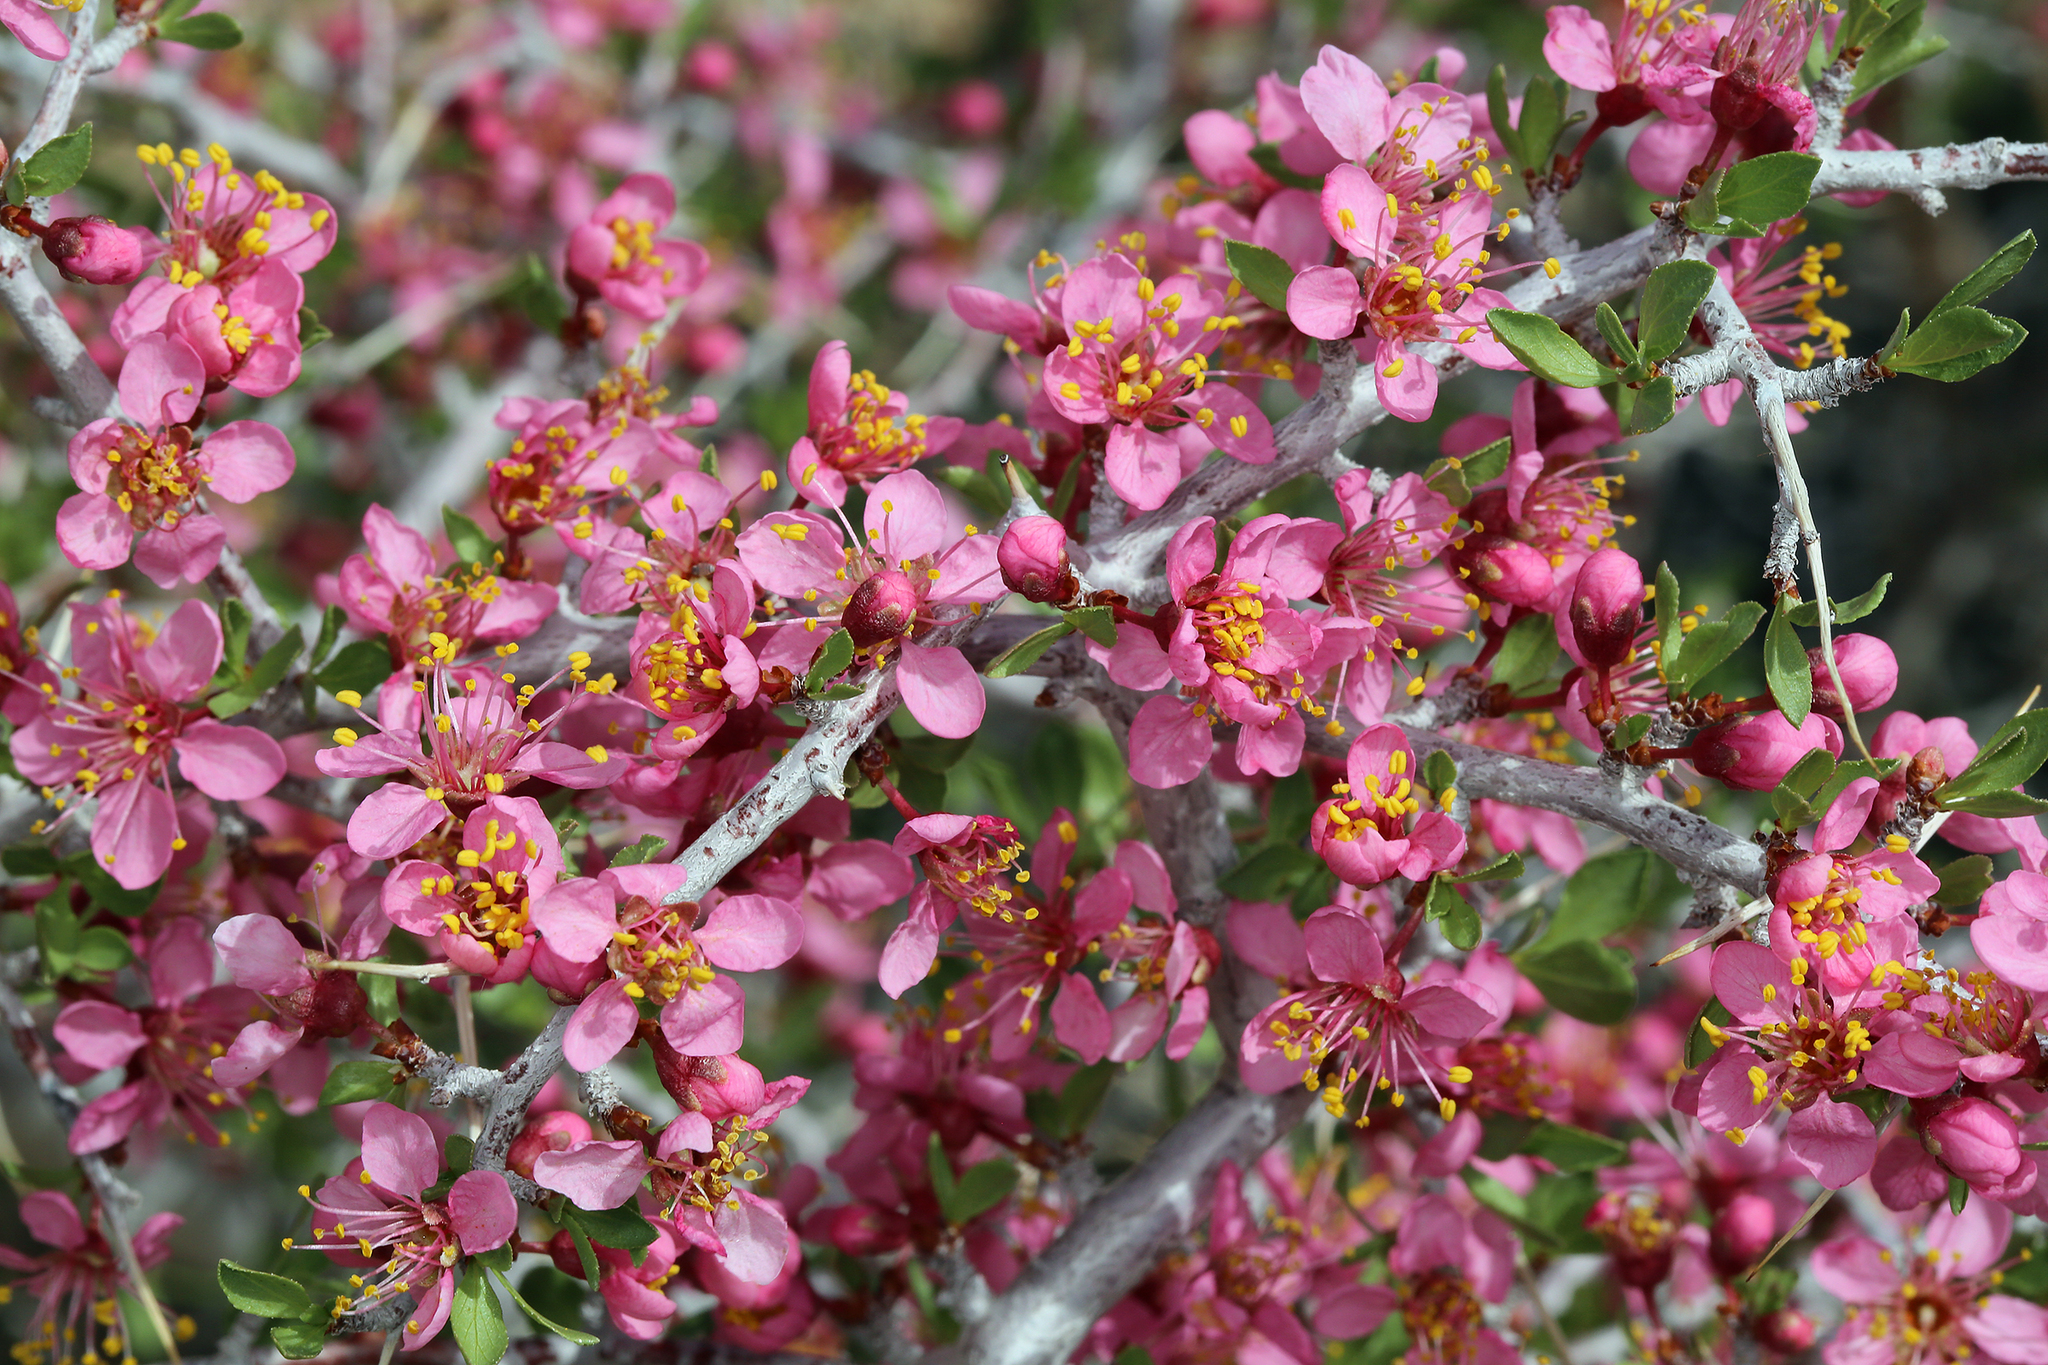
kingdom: Plantae
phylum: Tracheophyta
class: Magnoliopsida
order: Rosales
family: Rosaceae
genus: Prunus
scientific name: Prunus andersonii
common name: Desert peach
